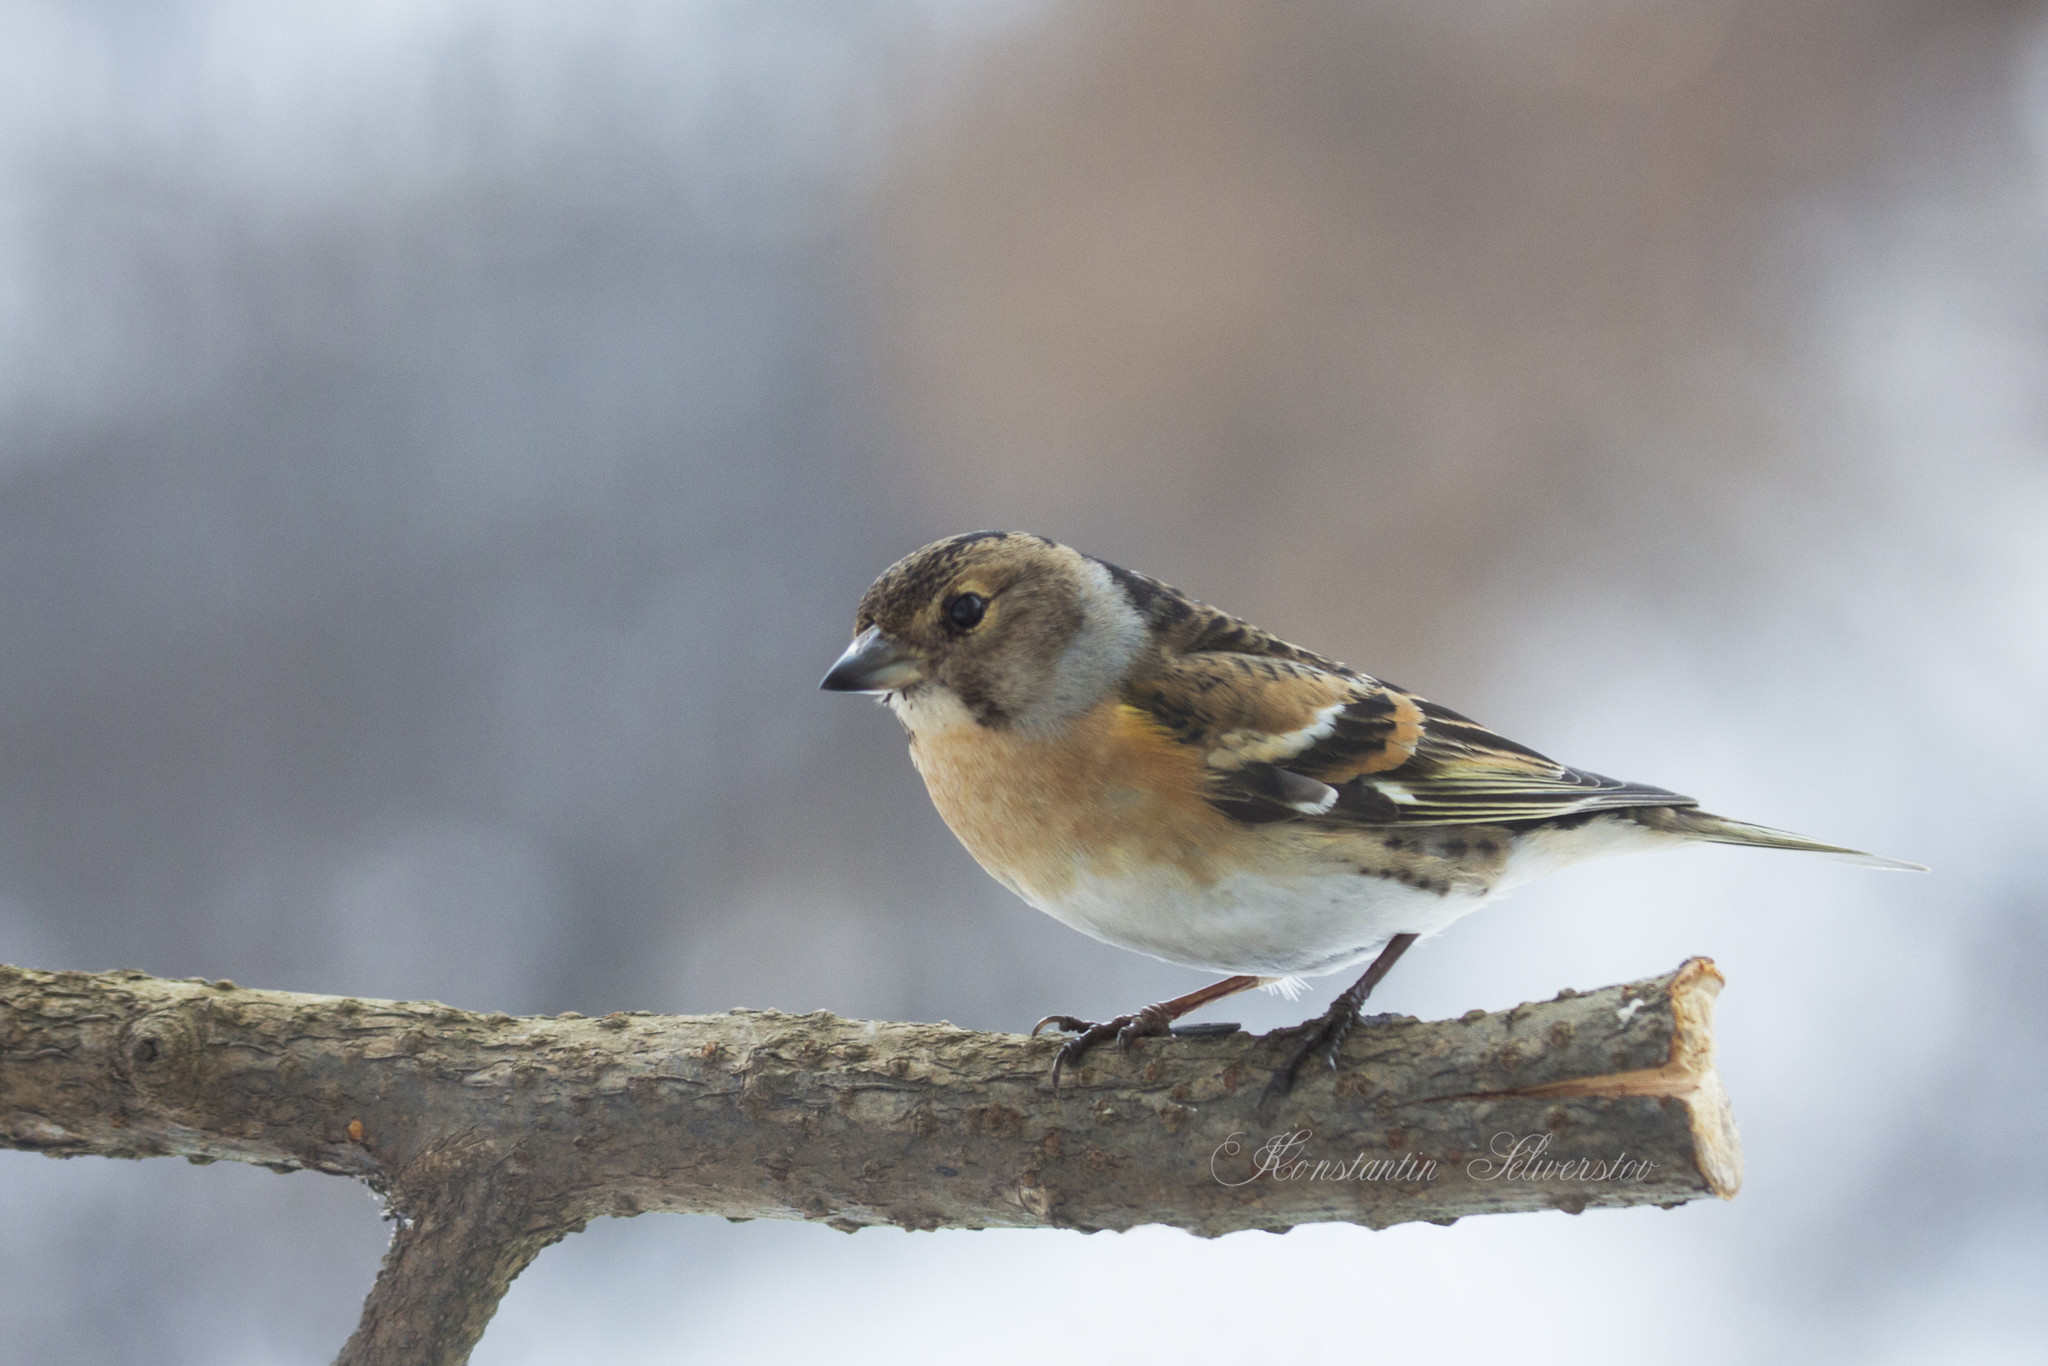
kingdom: Animalia
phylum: Chordata
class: Aves
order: Passeriformes
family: Fringillidae
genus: Fringilla
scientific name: Fringilla montifringilla
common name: Brambling
